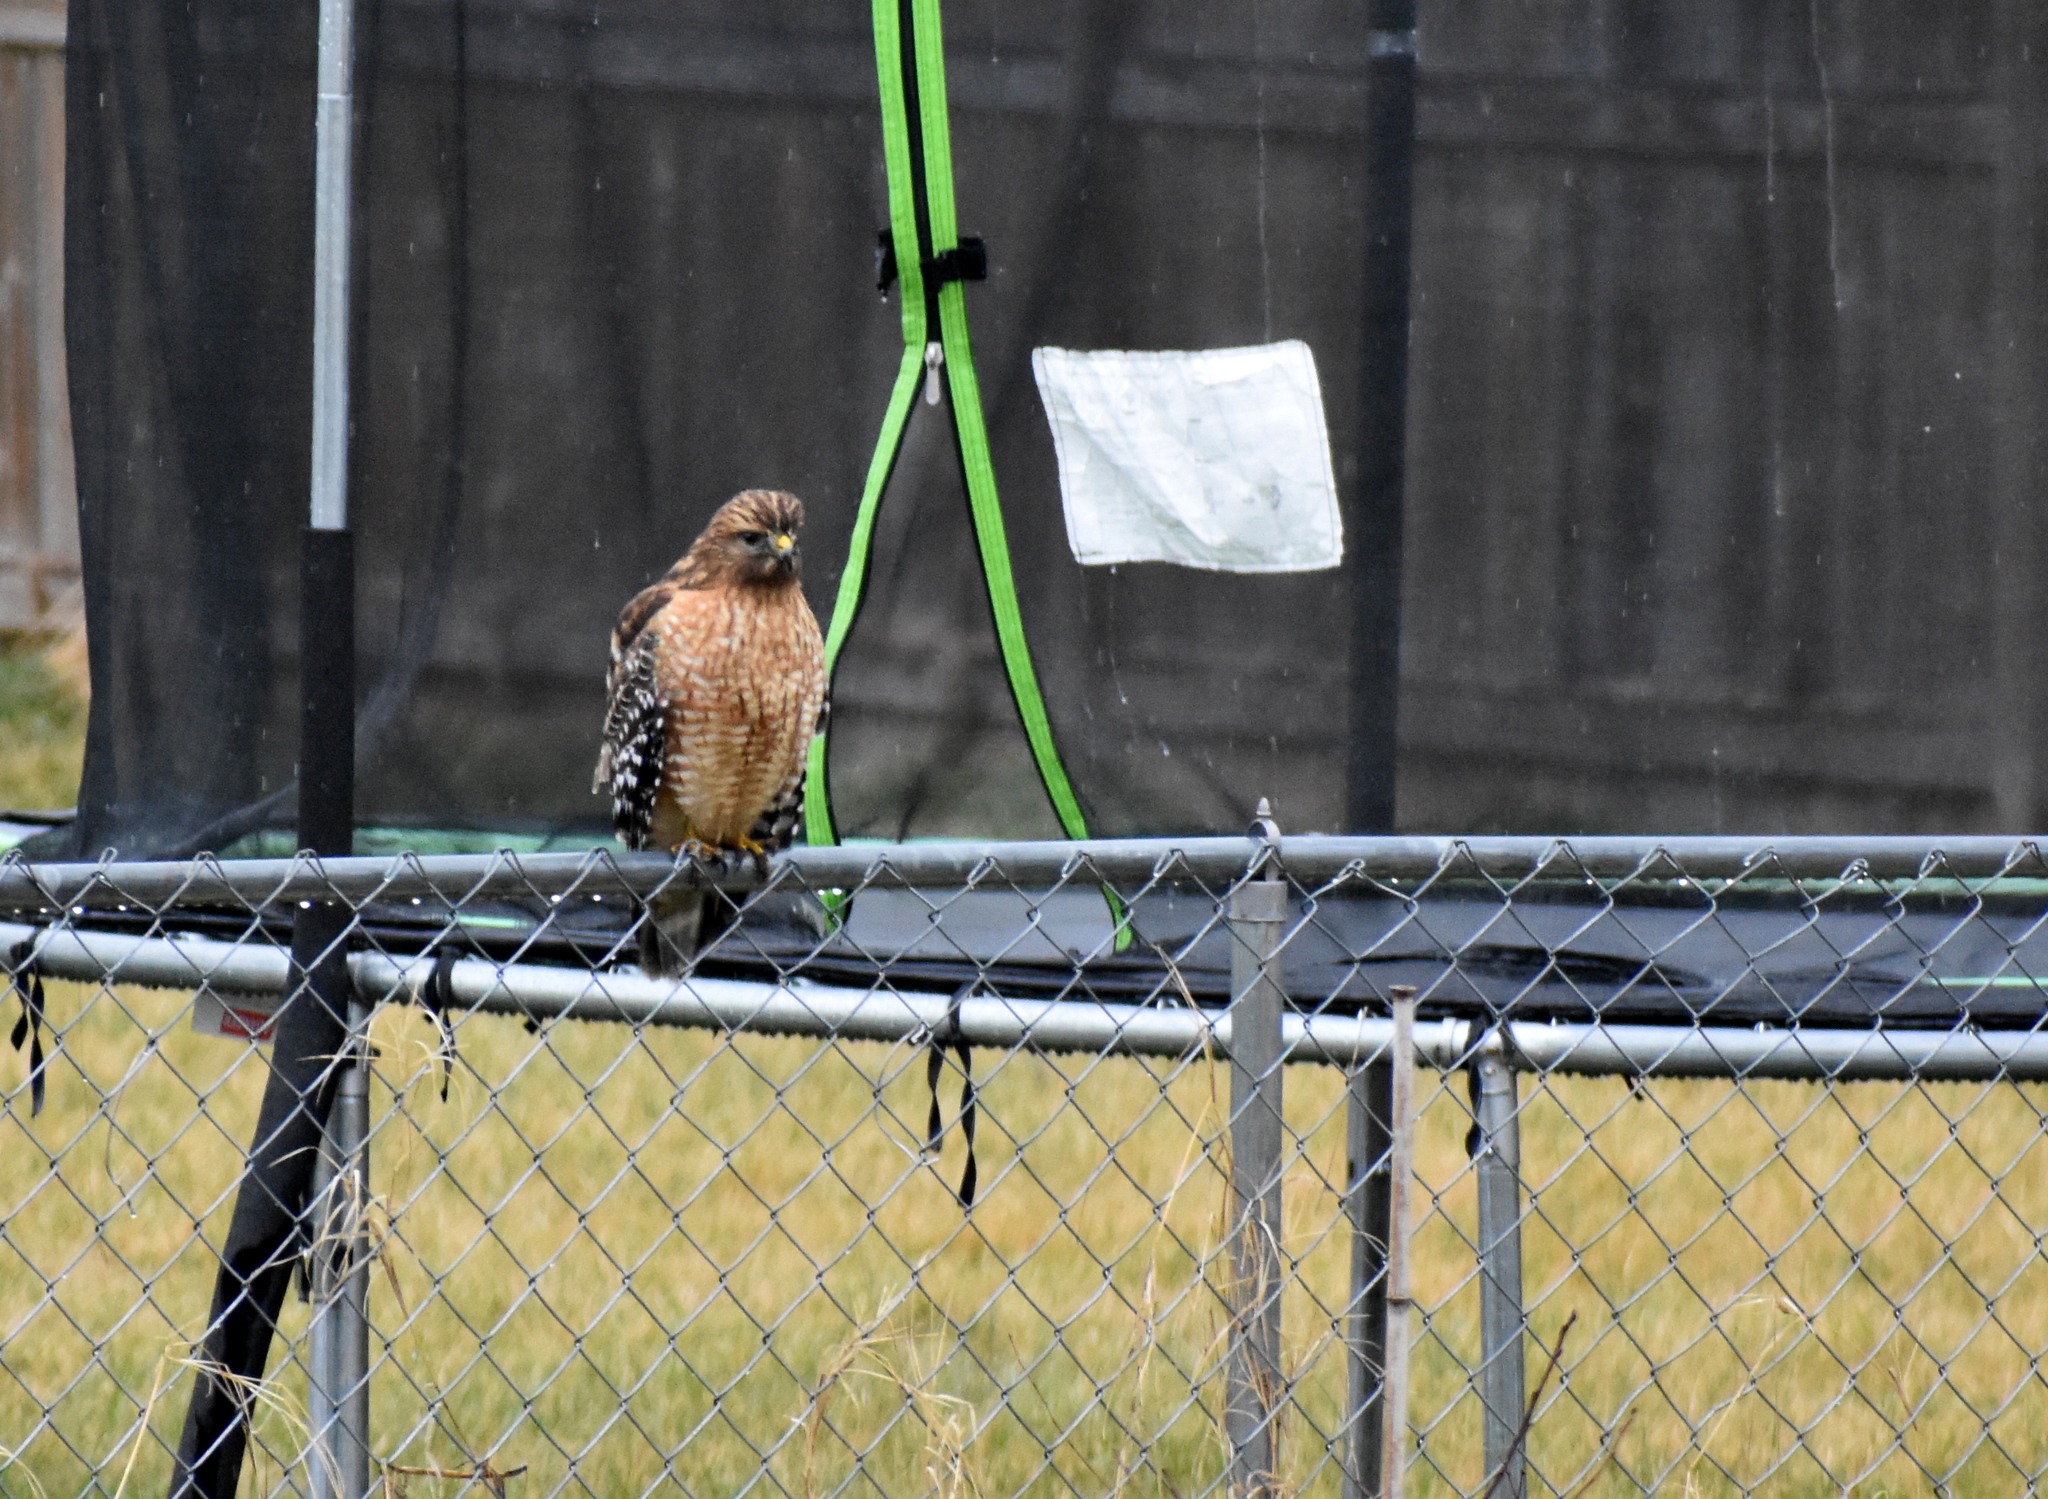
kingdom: Animalia
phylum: Chordata
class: Aves
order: Accipitriformes
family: Accipitridae
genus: Buteo
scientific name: Buteo lineatus
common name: Red-shouldered hawk
